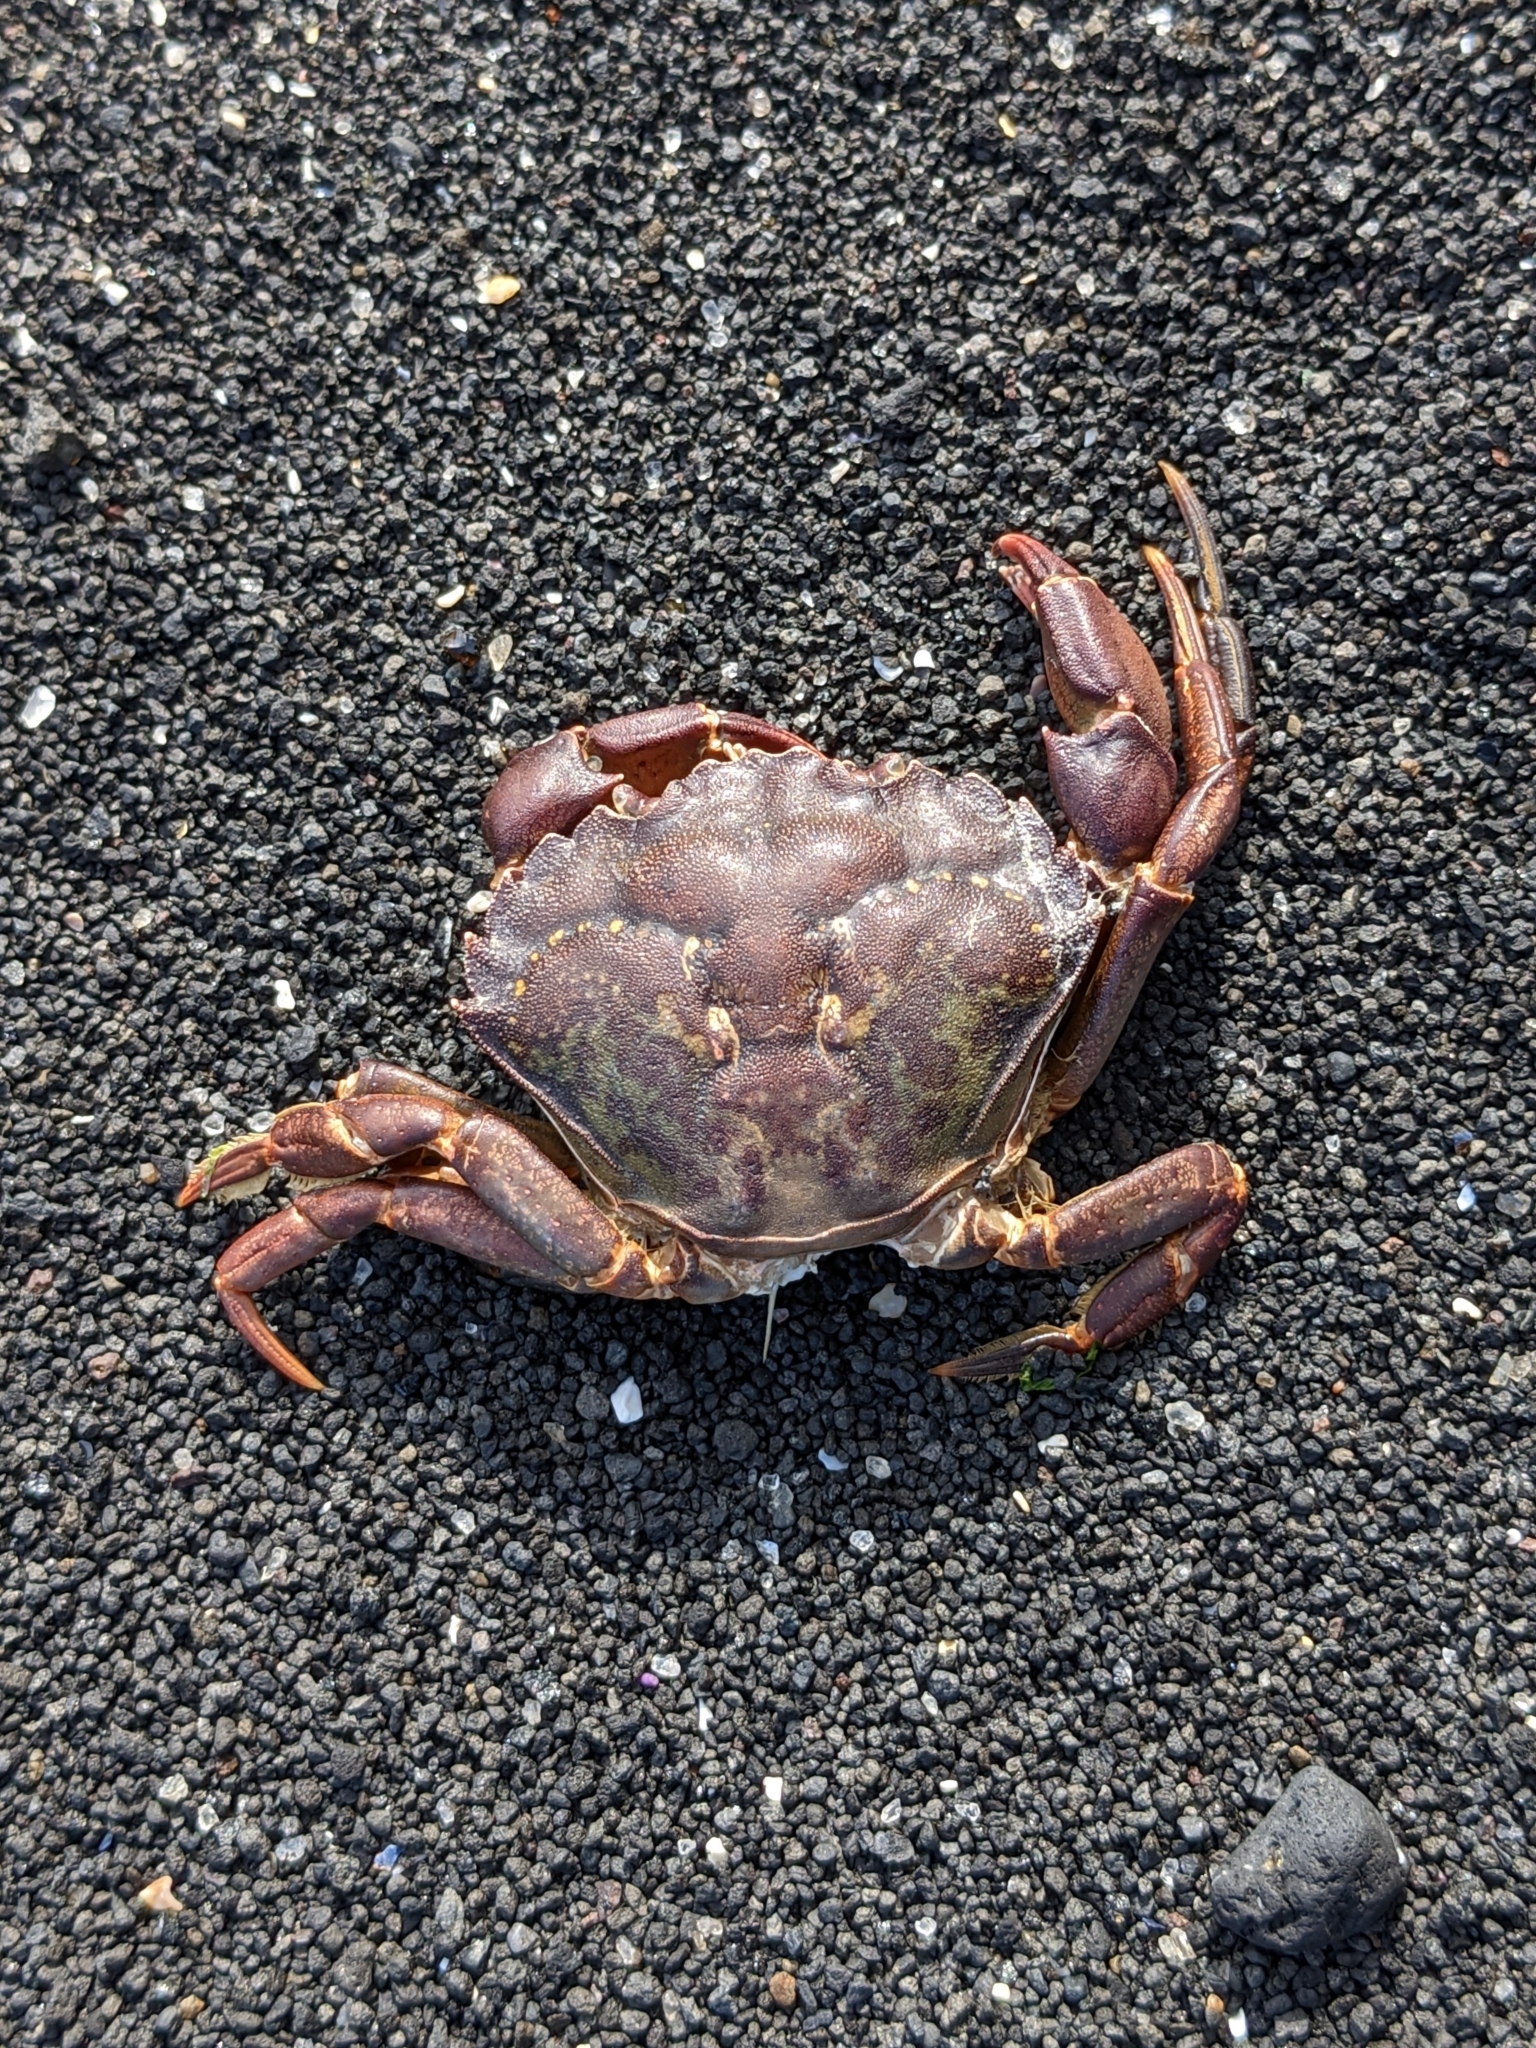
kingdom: Animalia
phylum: Arthropoda
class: Malacostraca
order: Decapoda
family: Carcinidae
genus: Carcinus
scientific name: Carcinus maenas
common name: European green crab
